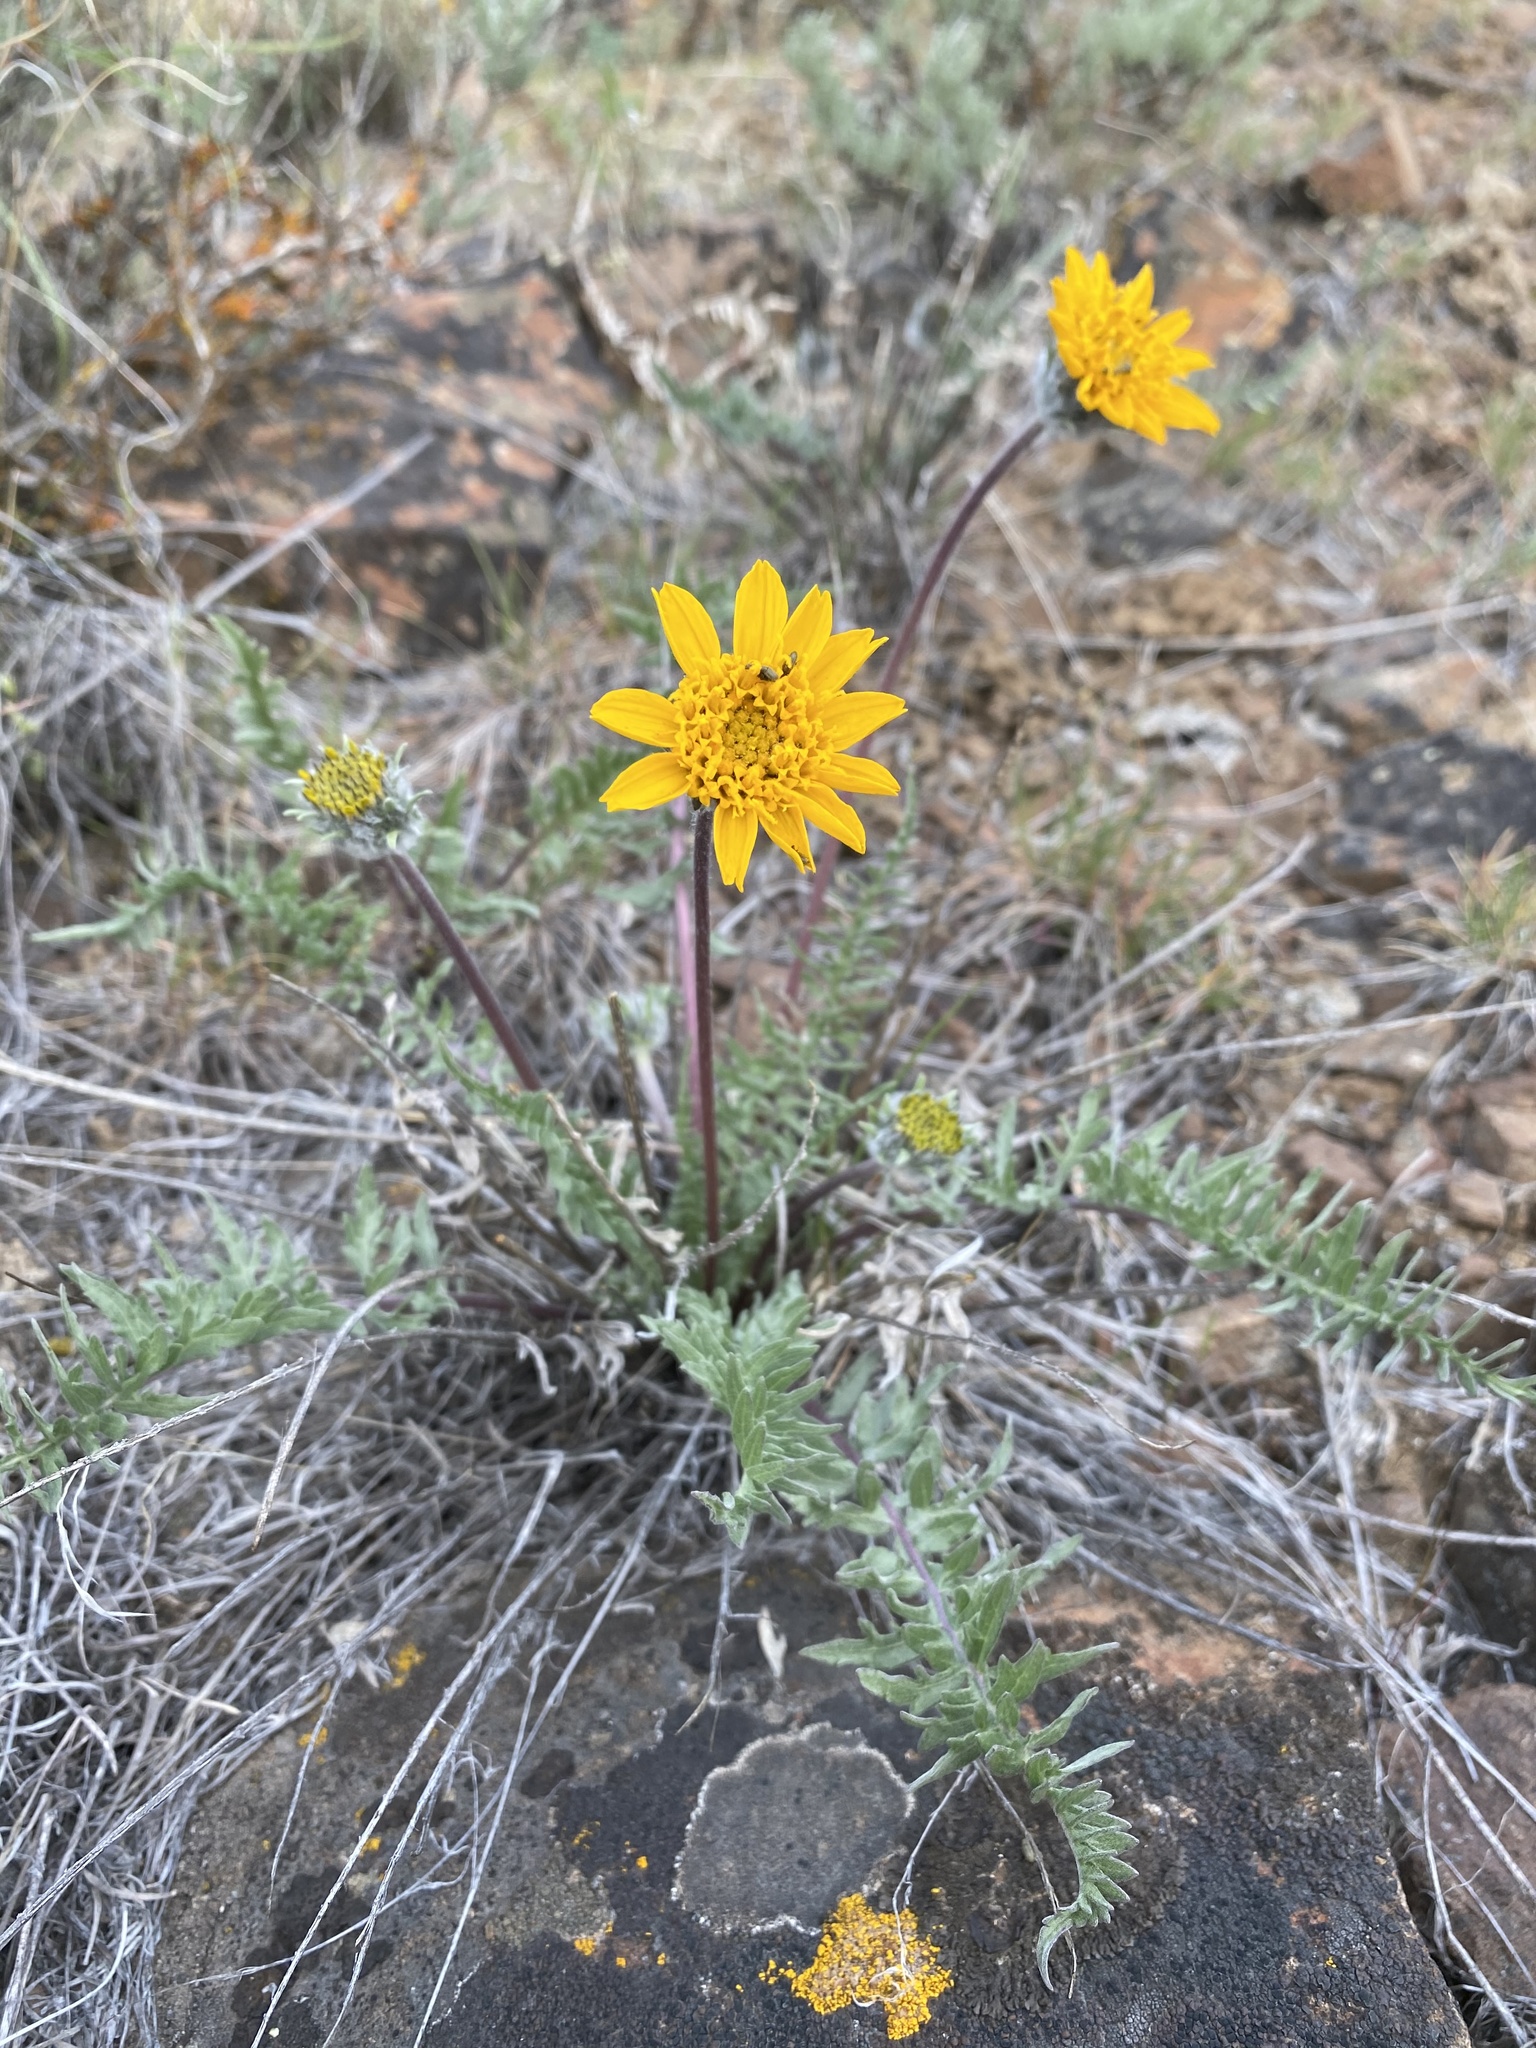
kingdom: Plantae
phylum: Tracheophyta
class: Magnoliopsida
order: Asterales
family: Asteraceae
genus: Balsamorhiza
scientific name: Balsamorhiza hookeri
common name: Hooker's balsamroot
